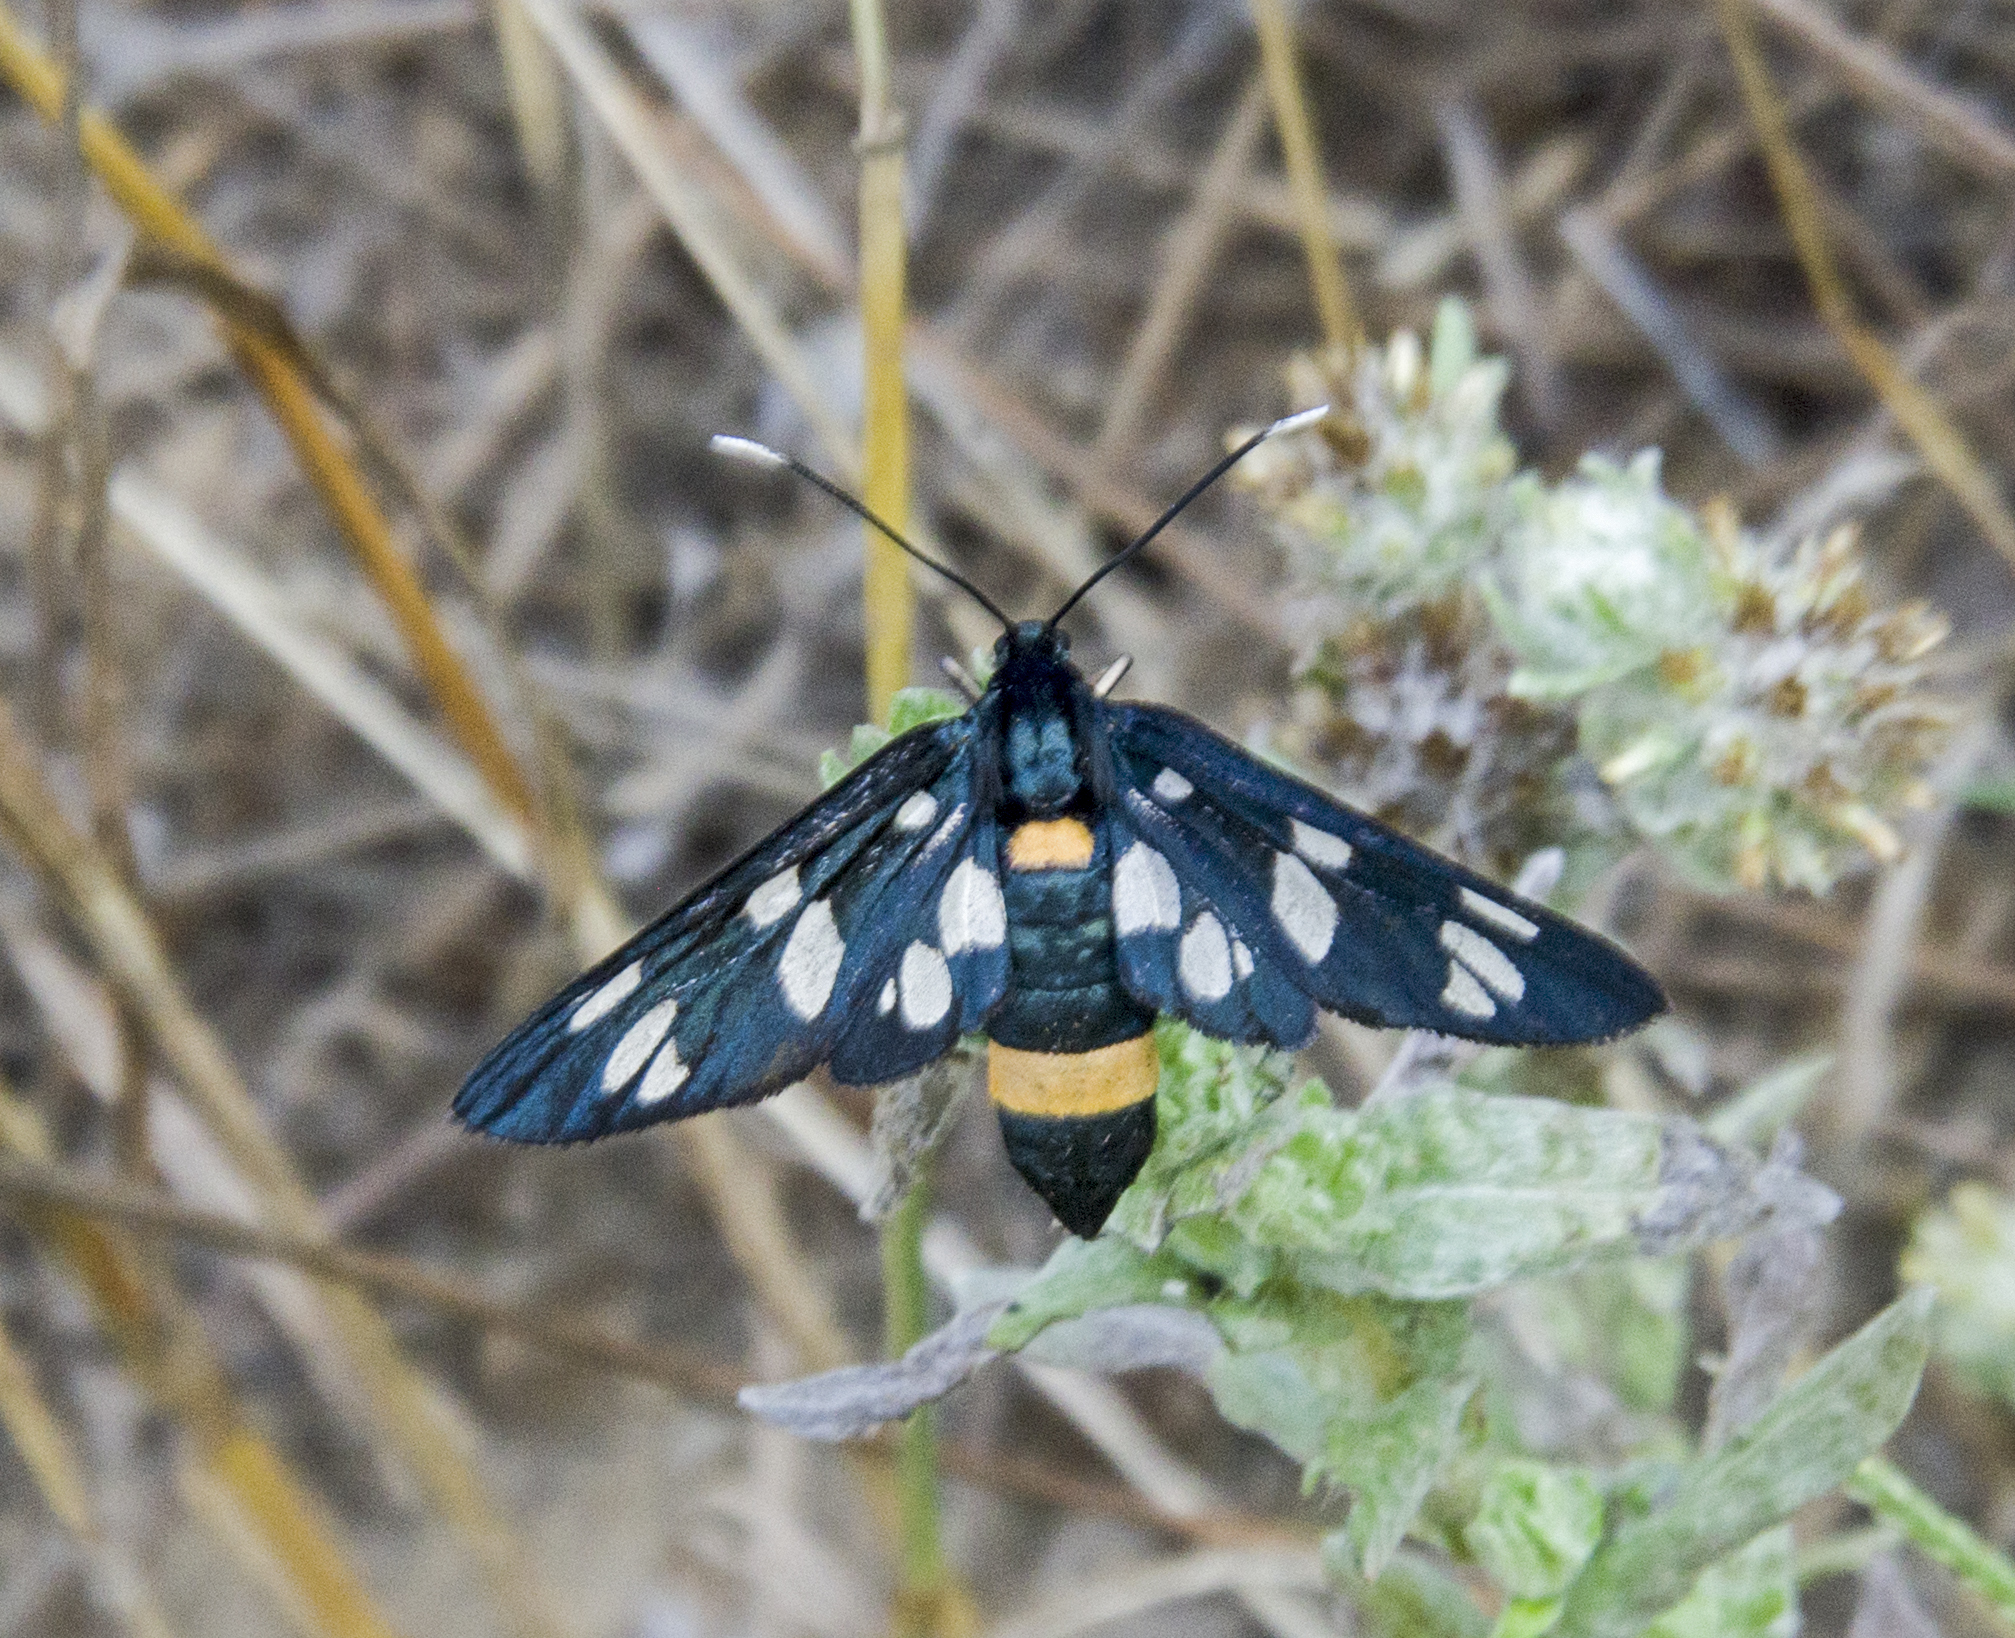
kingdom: Animalia
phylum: Arthropoda
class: Insecta
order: Lepidoptera
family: Erebidae
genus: Amata
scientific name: Amata phegea
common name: Nine-spotted
